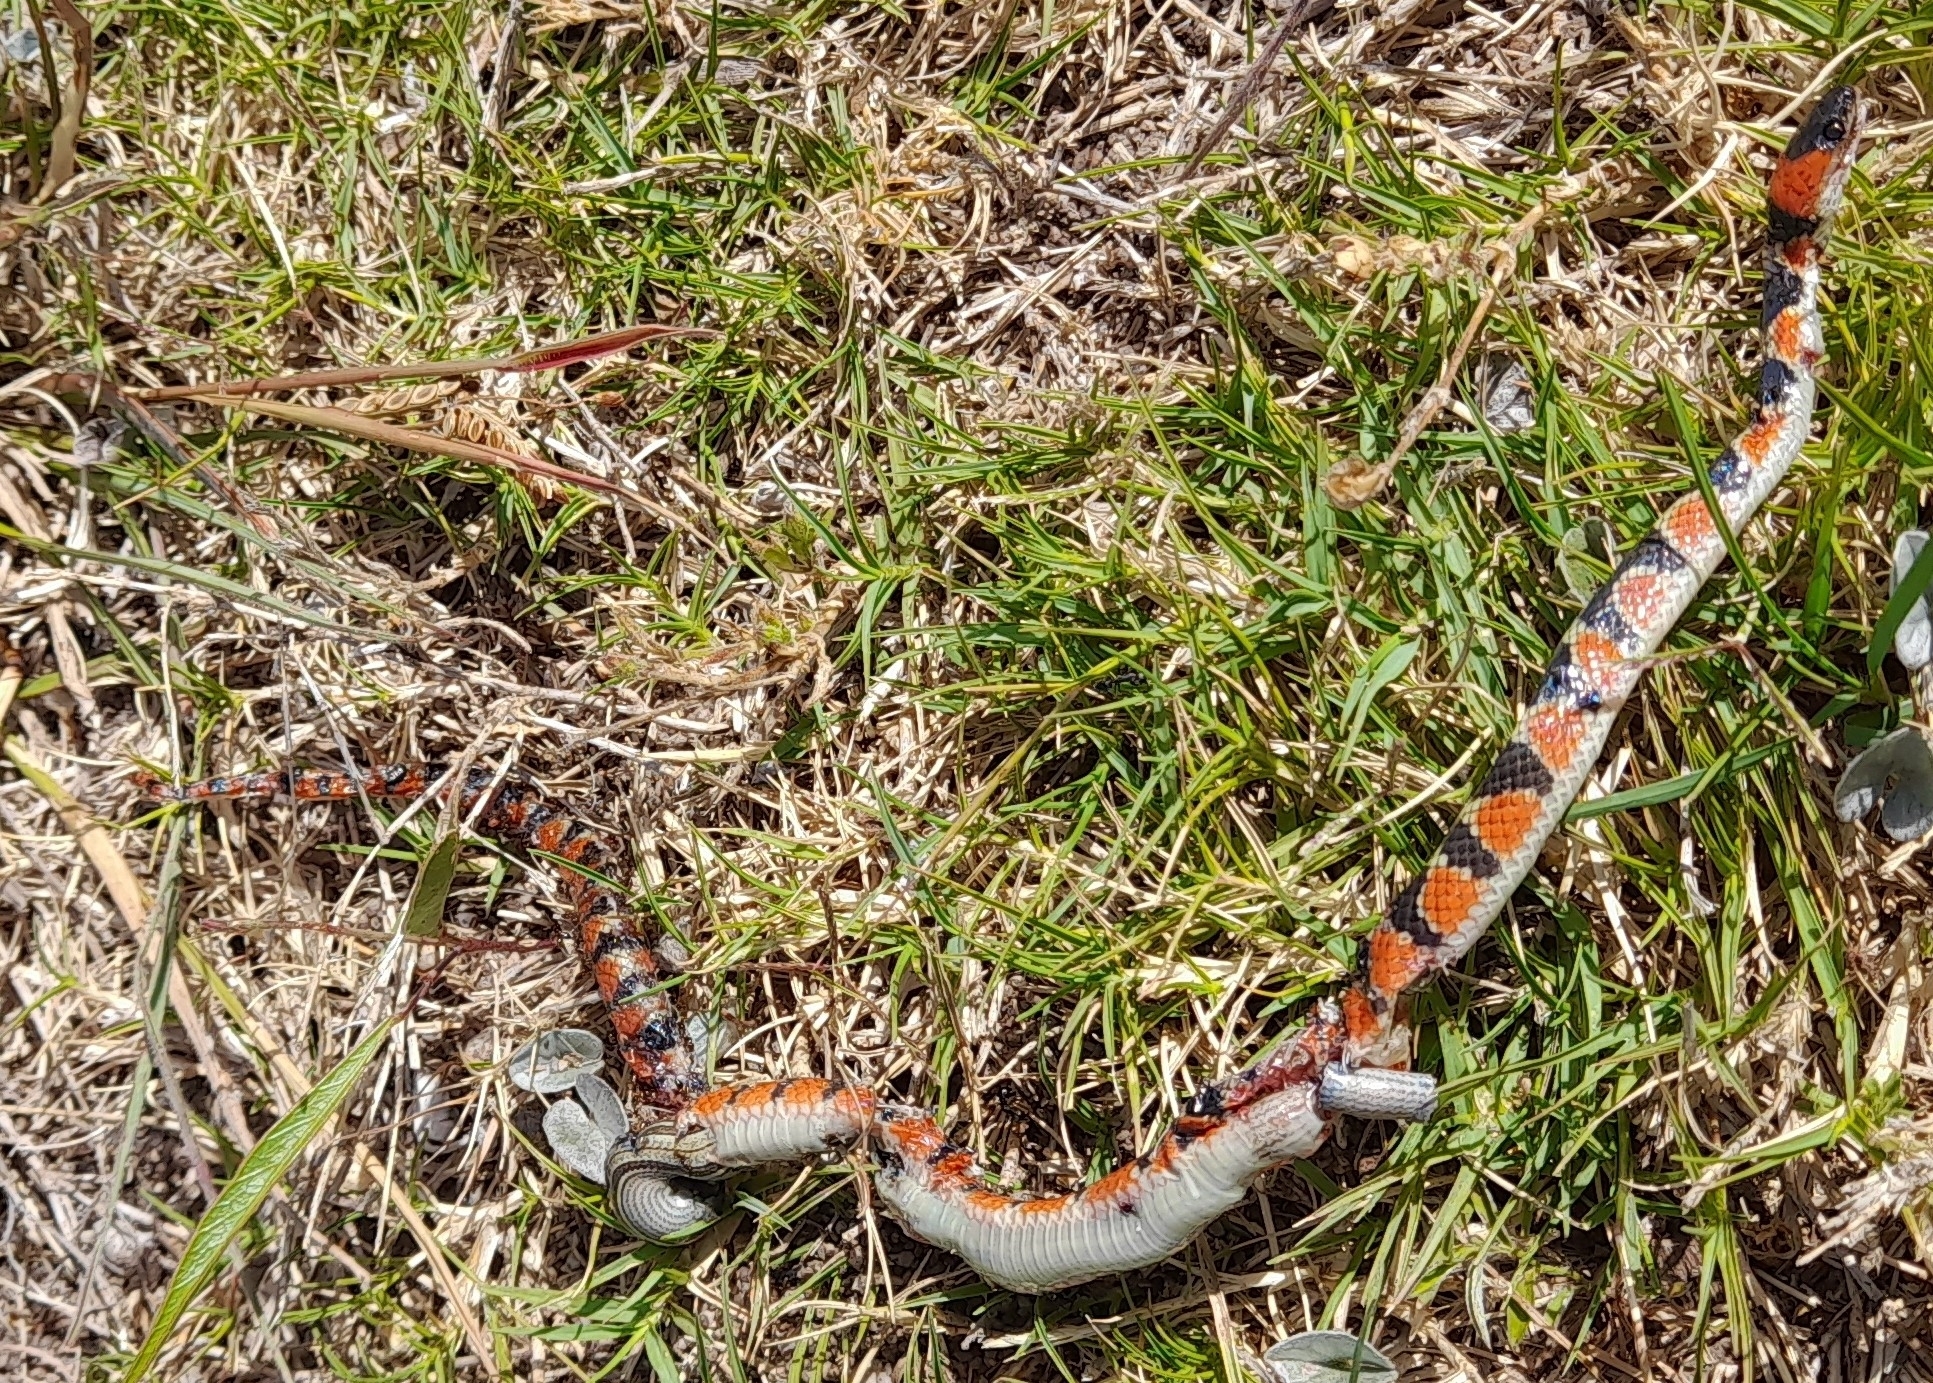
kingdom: Animalia
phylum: Chordata
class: Squamata
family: Colubridae
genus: Oxyrhopus
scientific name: Oxyrhopus rhombifer
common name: Amazon false coral snake
